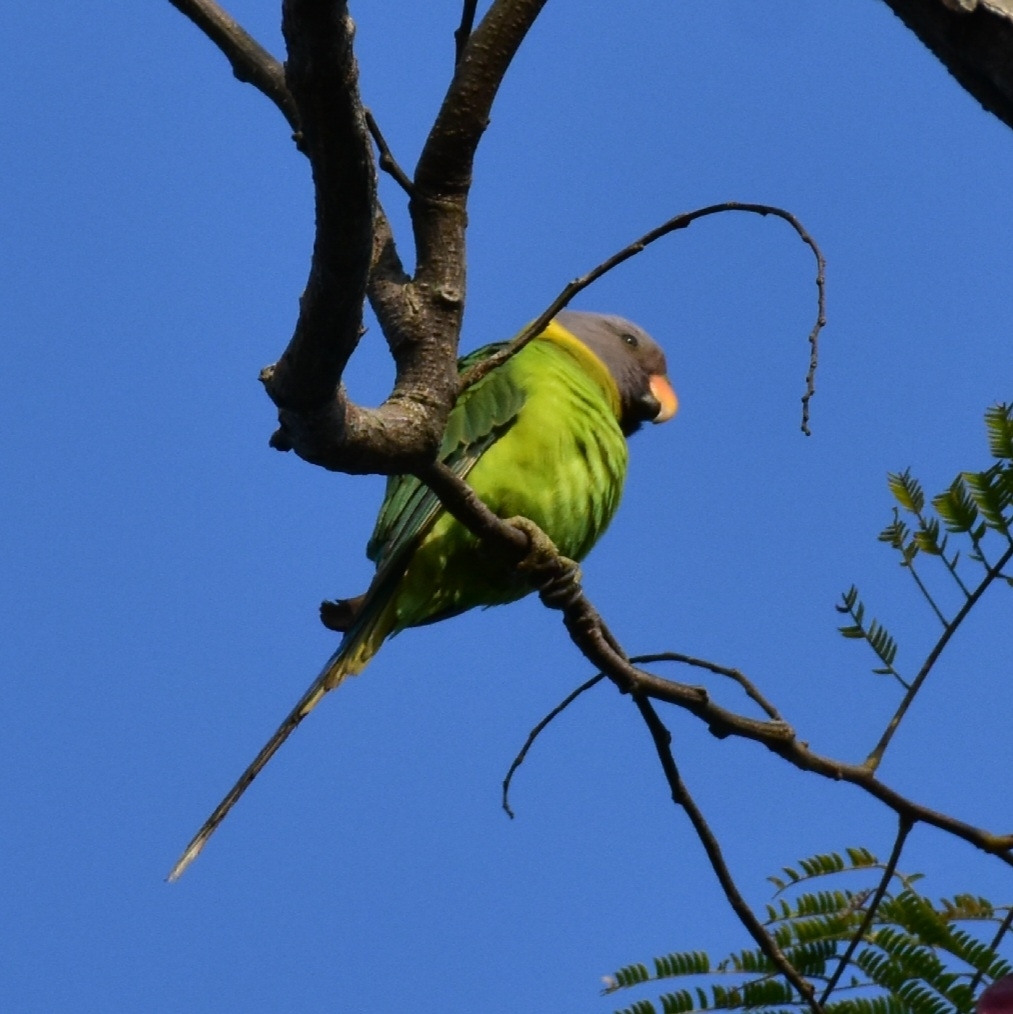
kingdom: Animalia
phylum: Chordata
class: Aves
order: Psittaciformes
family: Psittacidae
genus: Psittacula
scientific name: Psittacula cyanocephala
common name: Plum-headed parakeet
